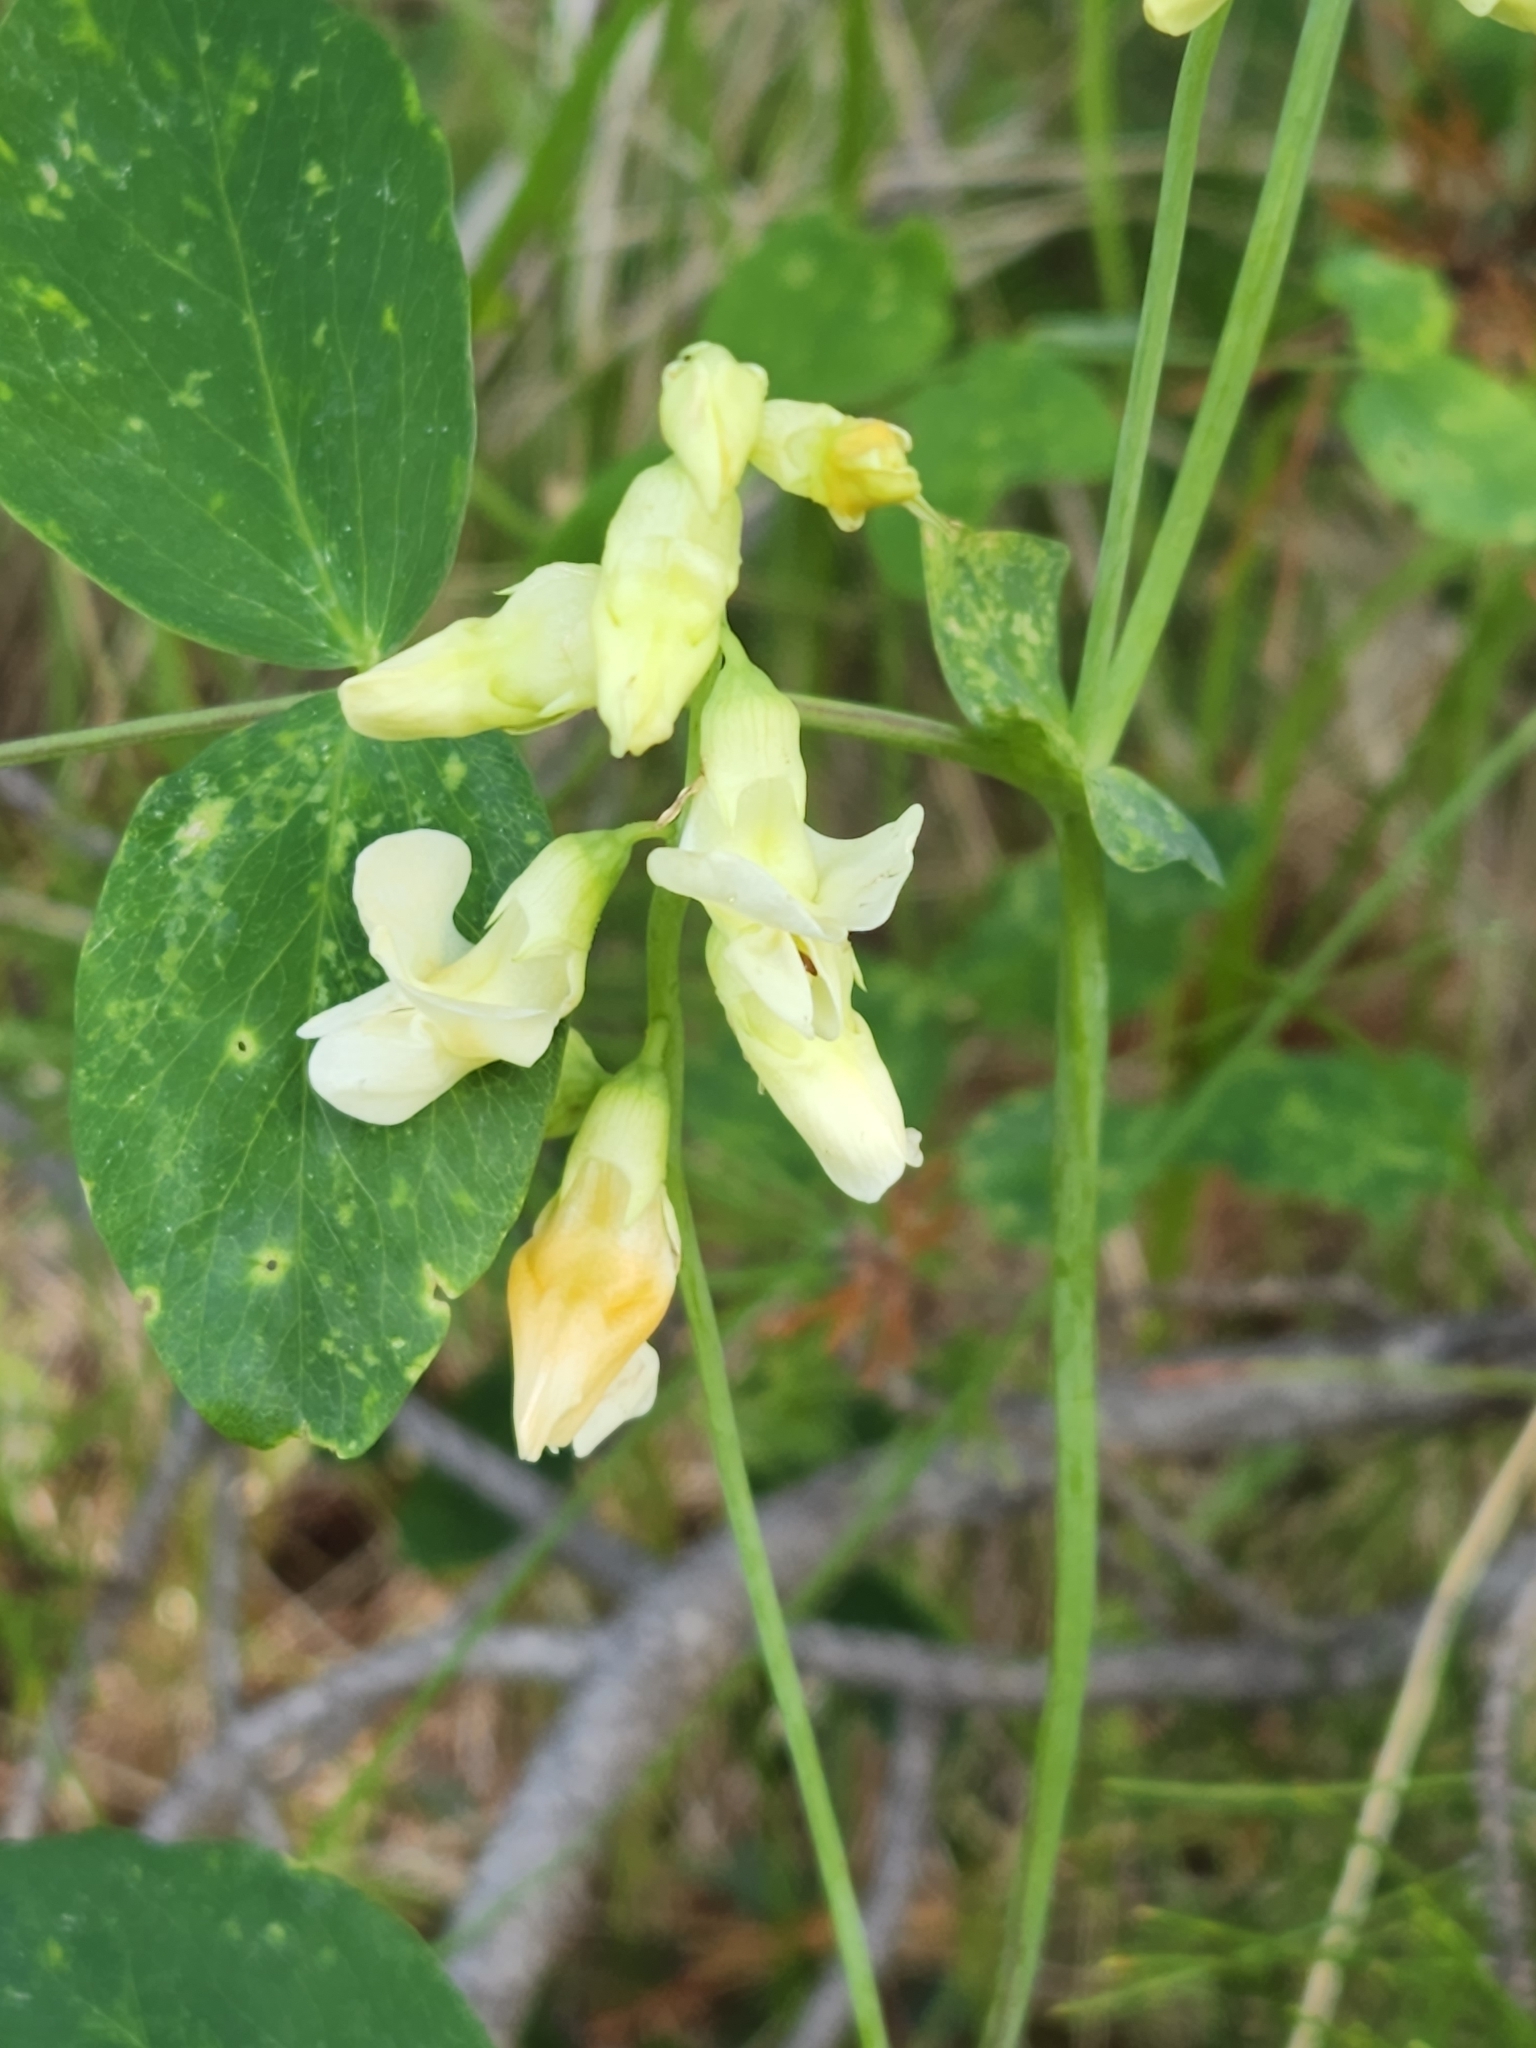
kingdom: Plantae
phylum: Tracheophyta
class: Magnoliopsida
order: Fabales
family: Fabaceae
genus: Lathyrus
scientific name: Lathyrus ochroleucus
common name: Pale vetchling
